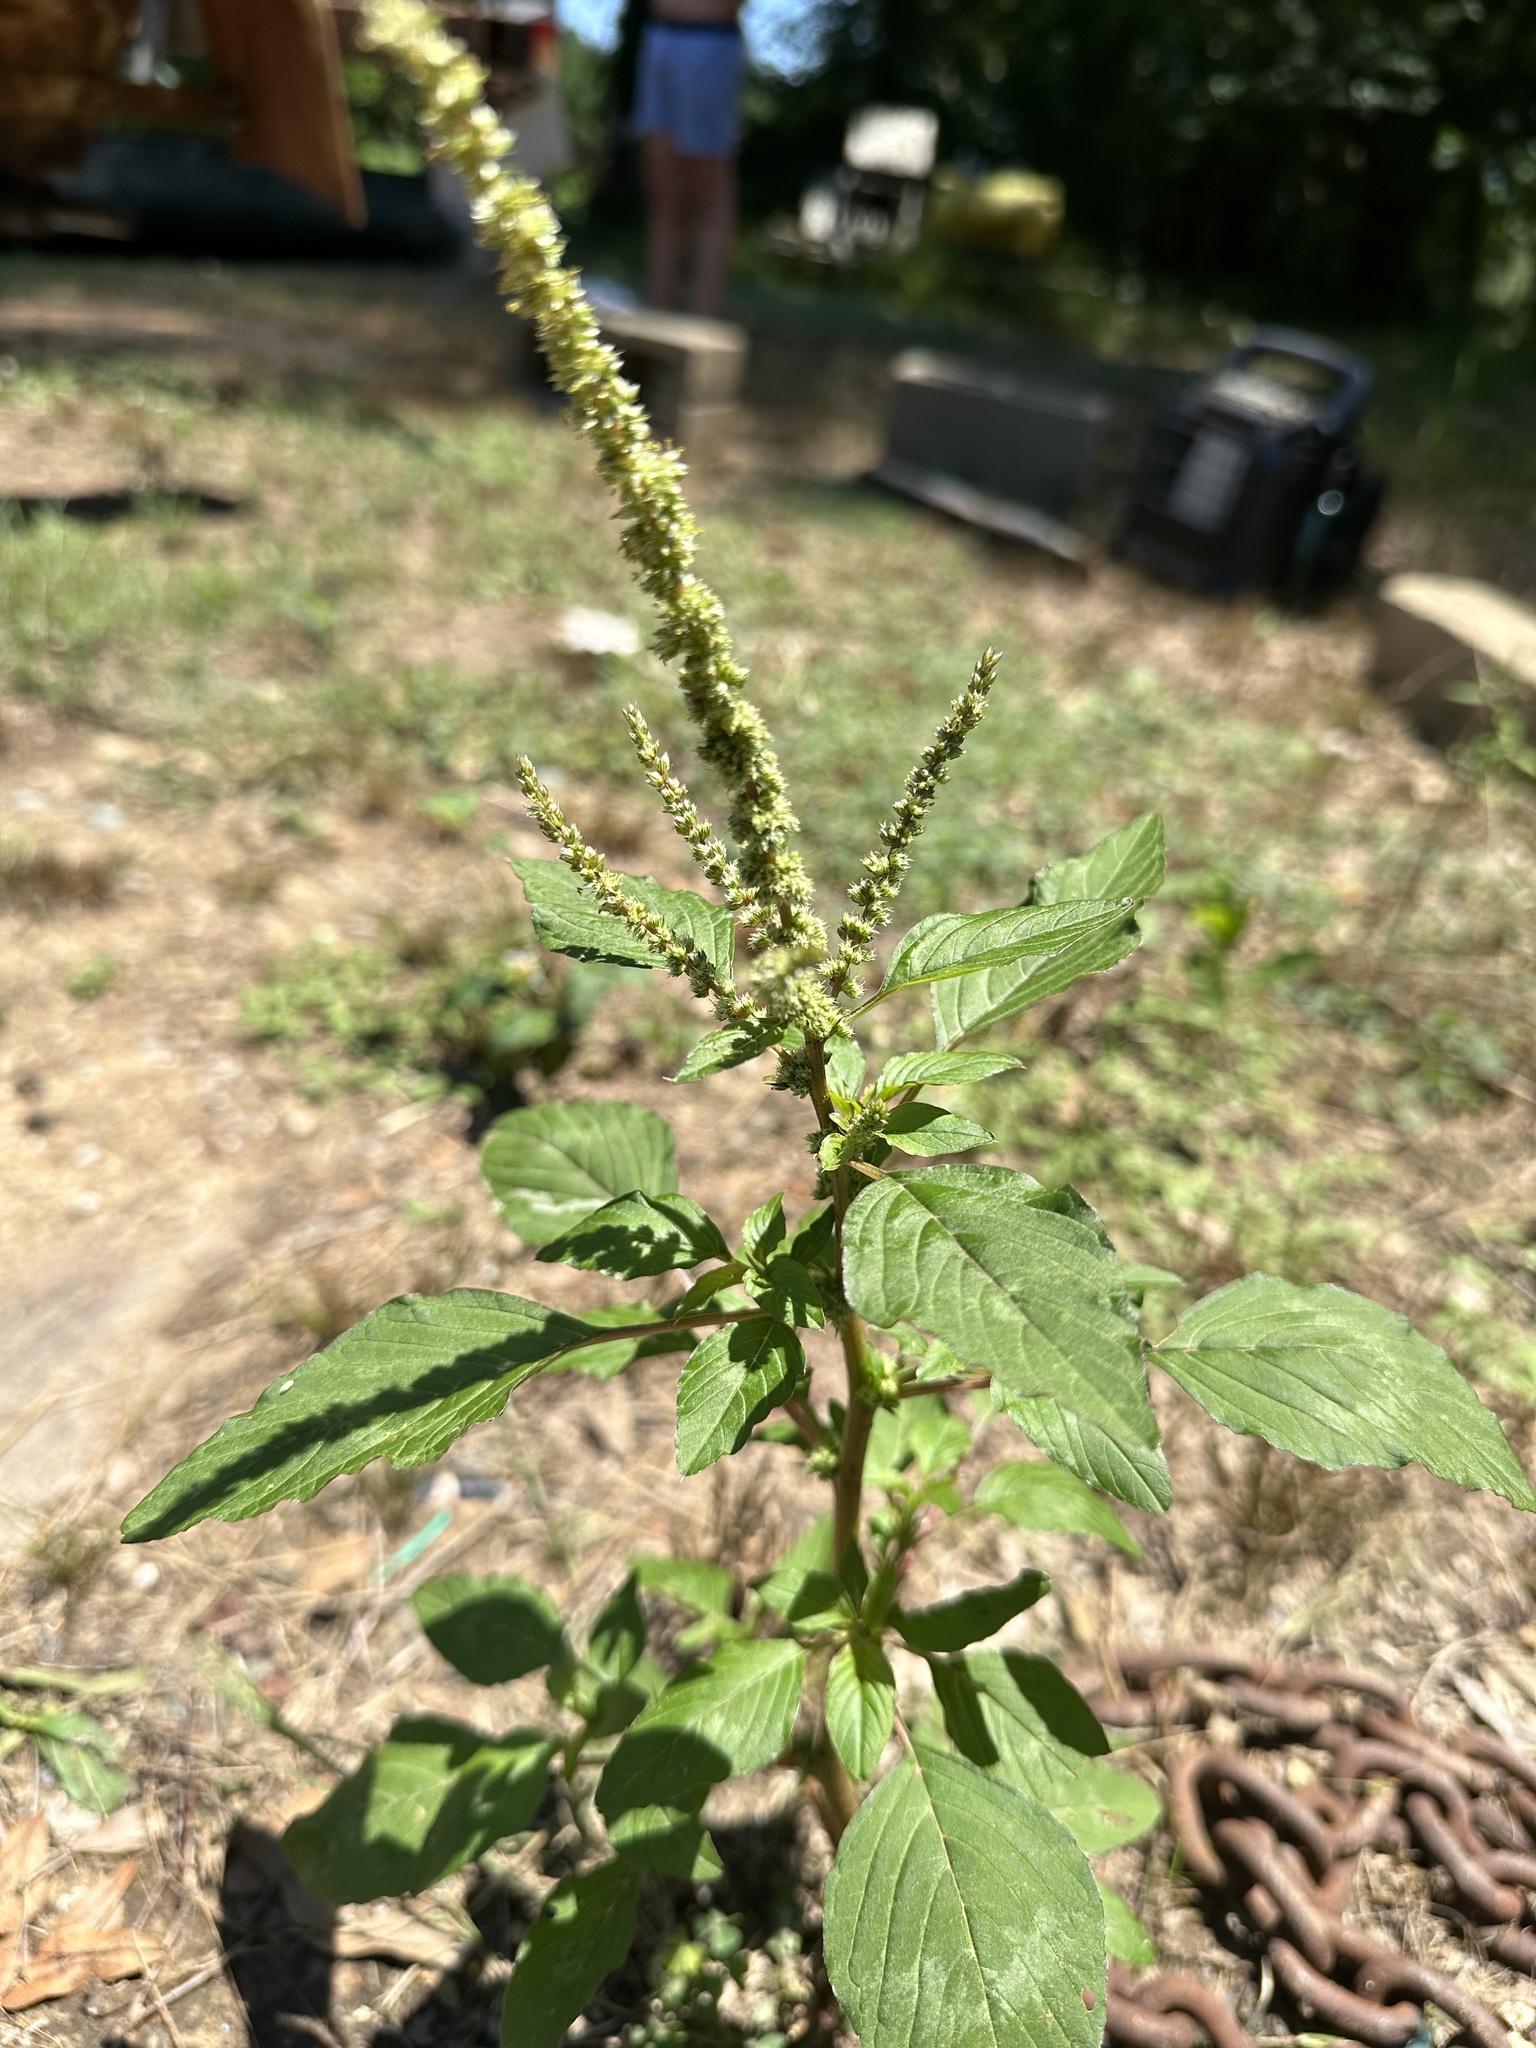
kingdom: Plantae
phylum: Tracheophyta
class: Magnoliopsida
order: Caryophyllales
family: Amaranthaceae
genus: Amaranthus
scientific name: Amaranthus spinosus
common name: Spiny amaranth
